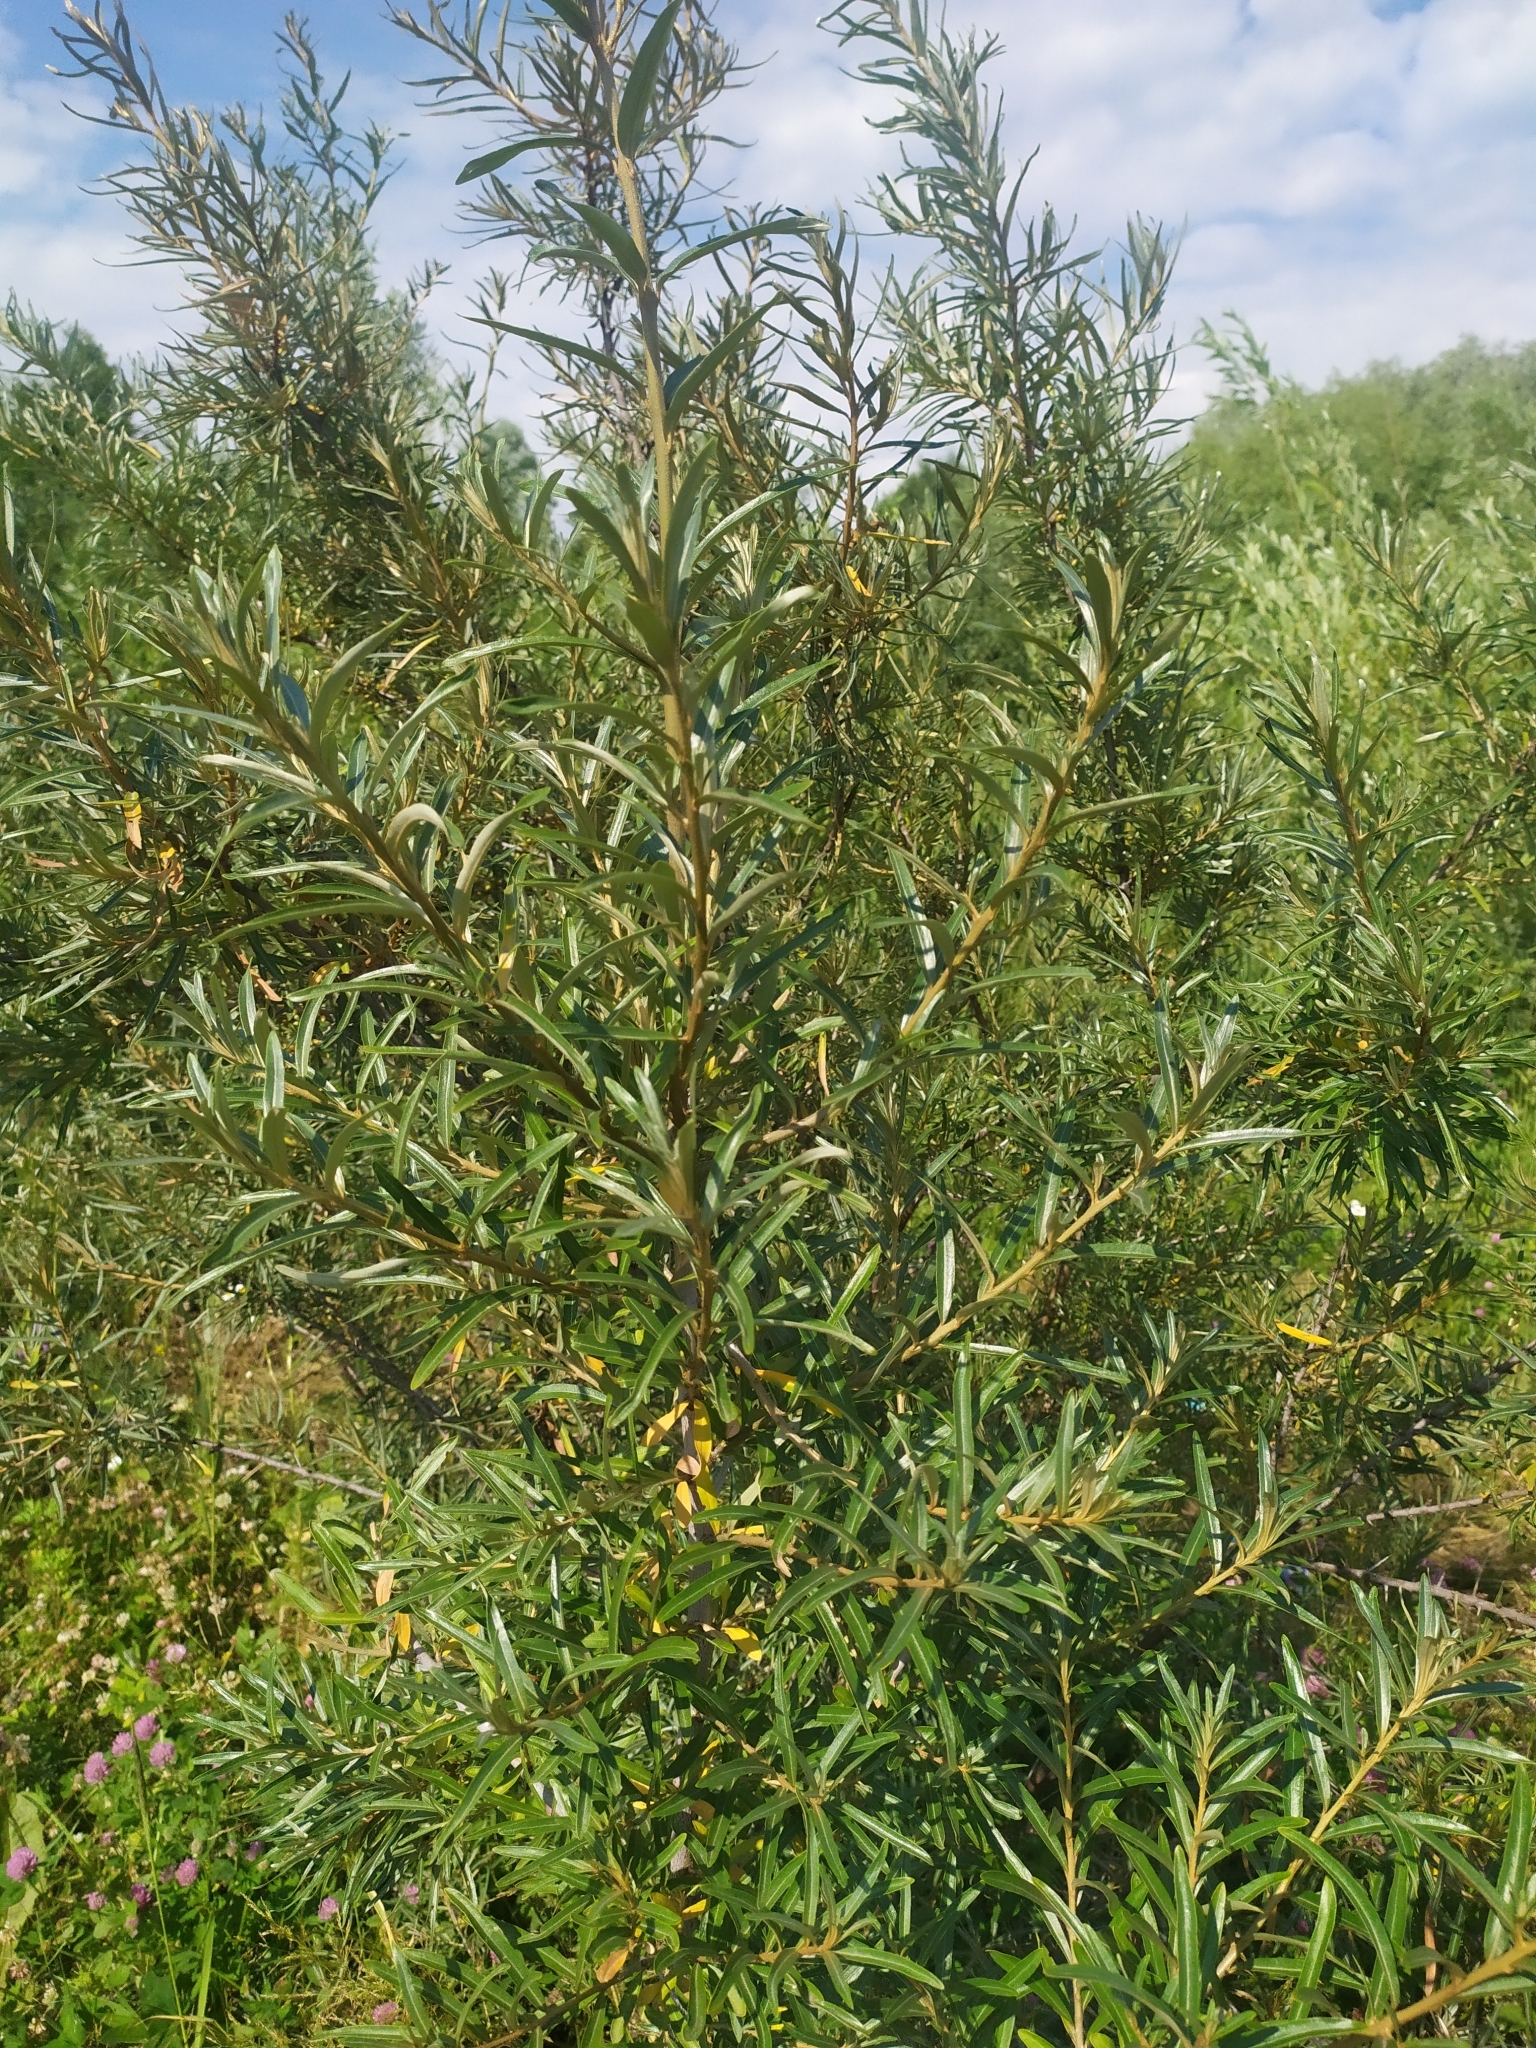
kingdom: Plantae
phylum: Tracheophyta
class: Magnoliopsida
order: Rosales
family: Elaeagnaceae
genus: Hippophae
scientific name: Hippophae rhamnoides
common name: Sea-buckthorn
